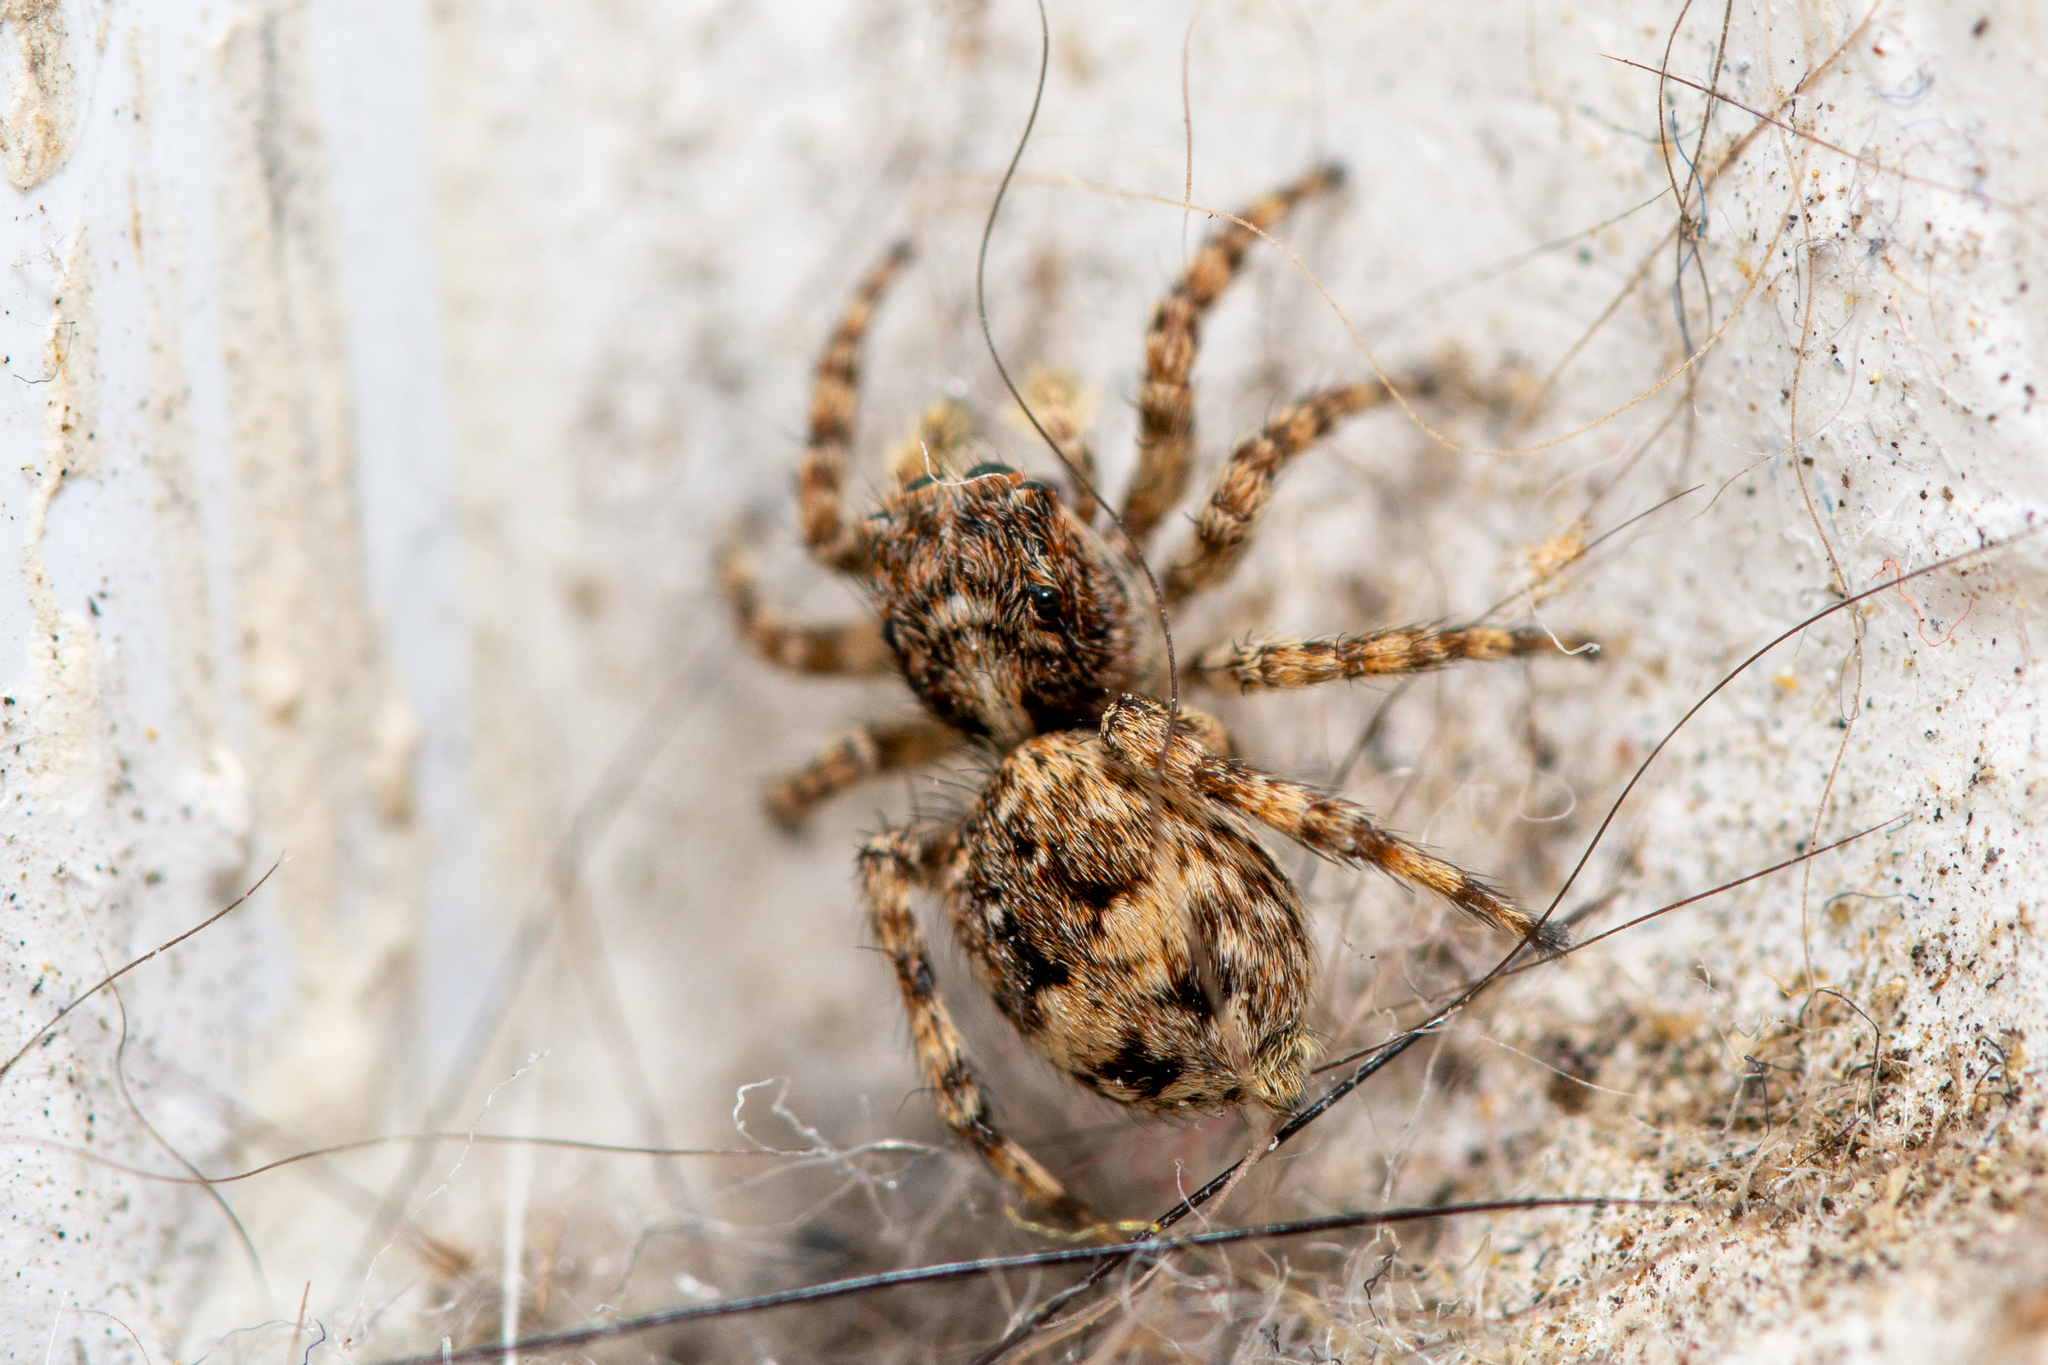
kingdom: Animalia
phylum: Arthropoda
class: Arachnida
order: Araneae
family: Salticidae
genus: Attulus
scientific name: Attulus fasciger
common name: Asiatic wall jumping spider
